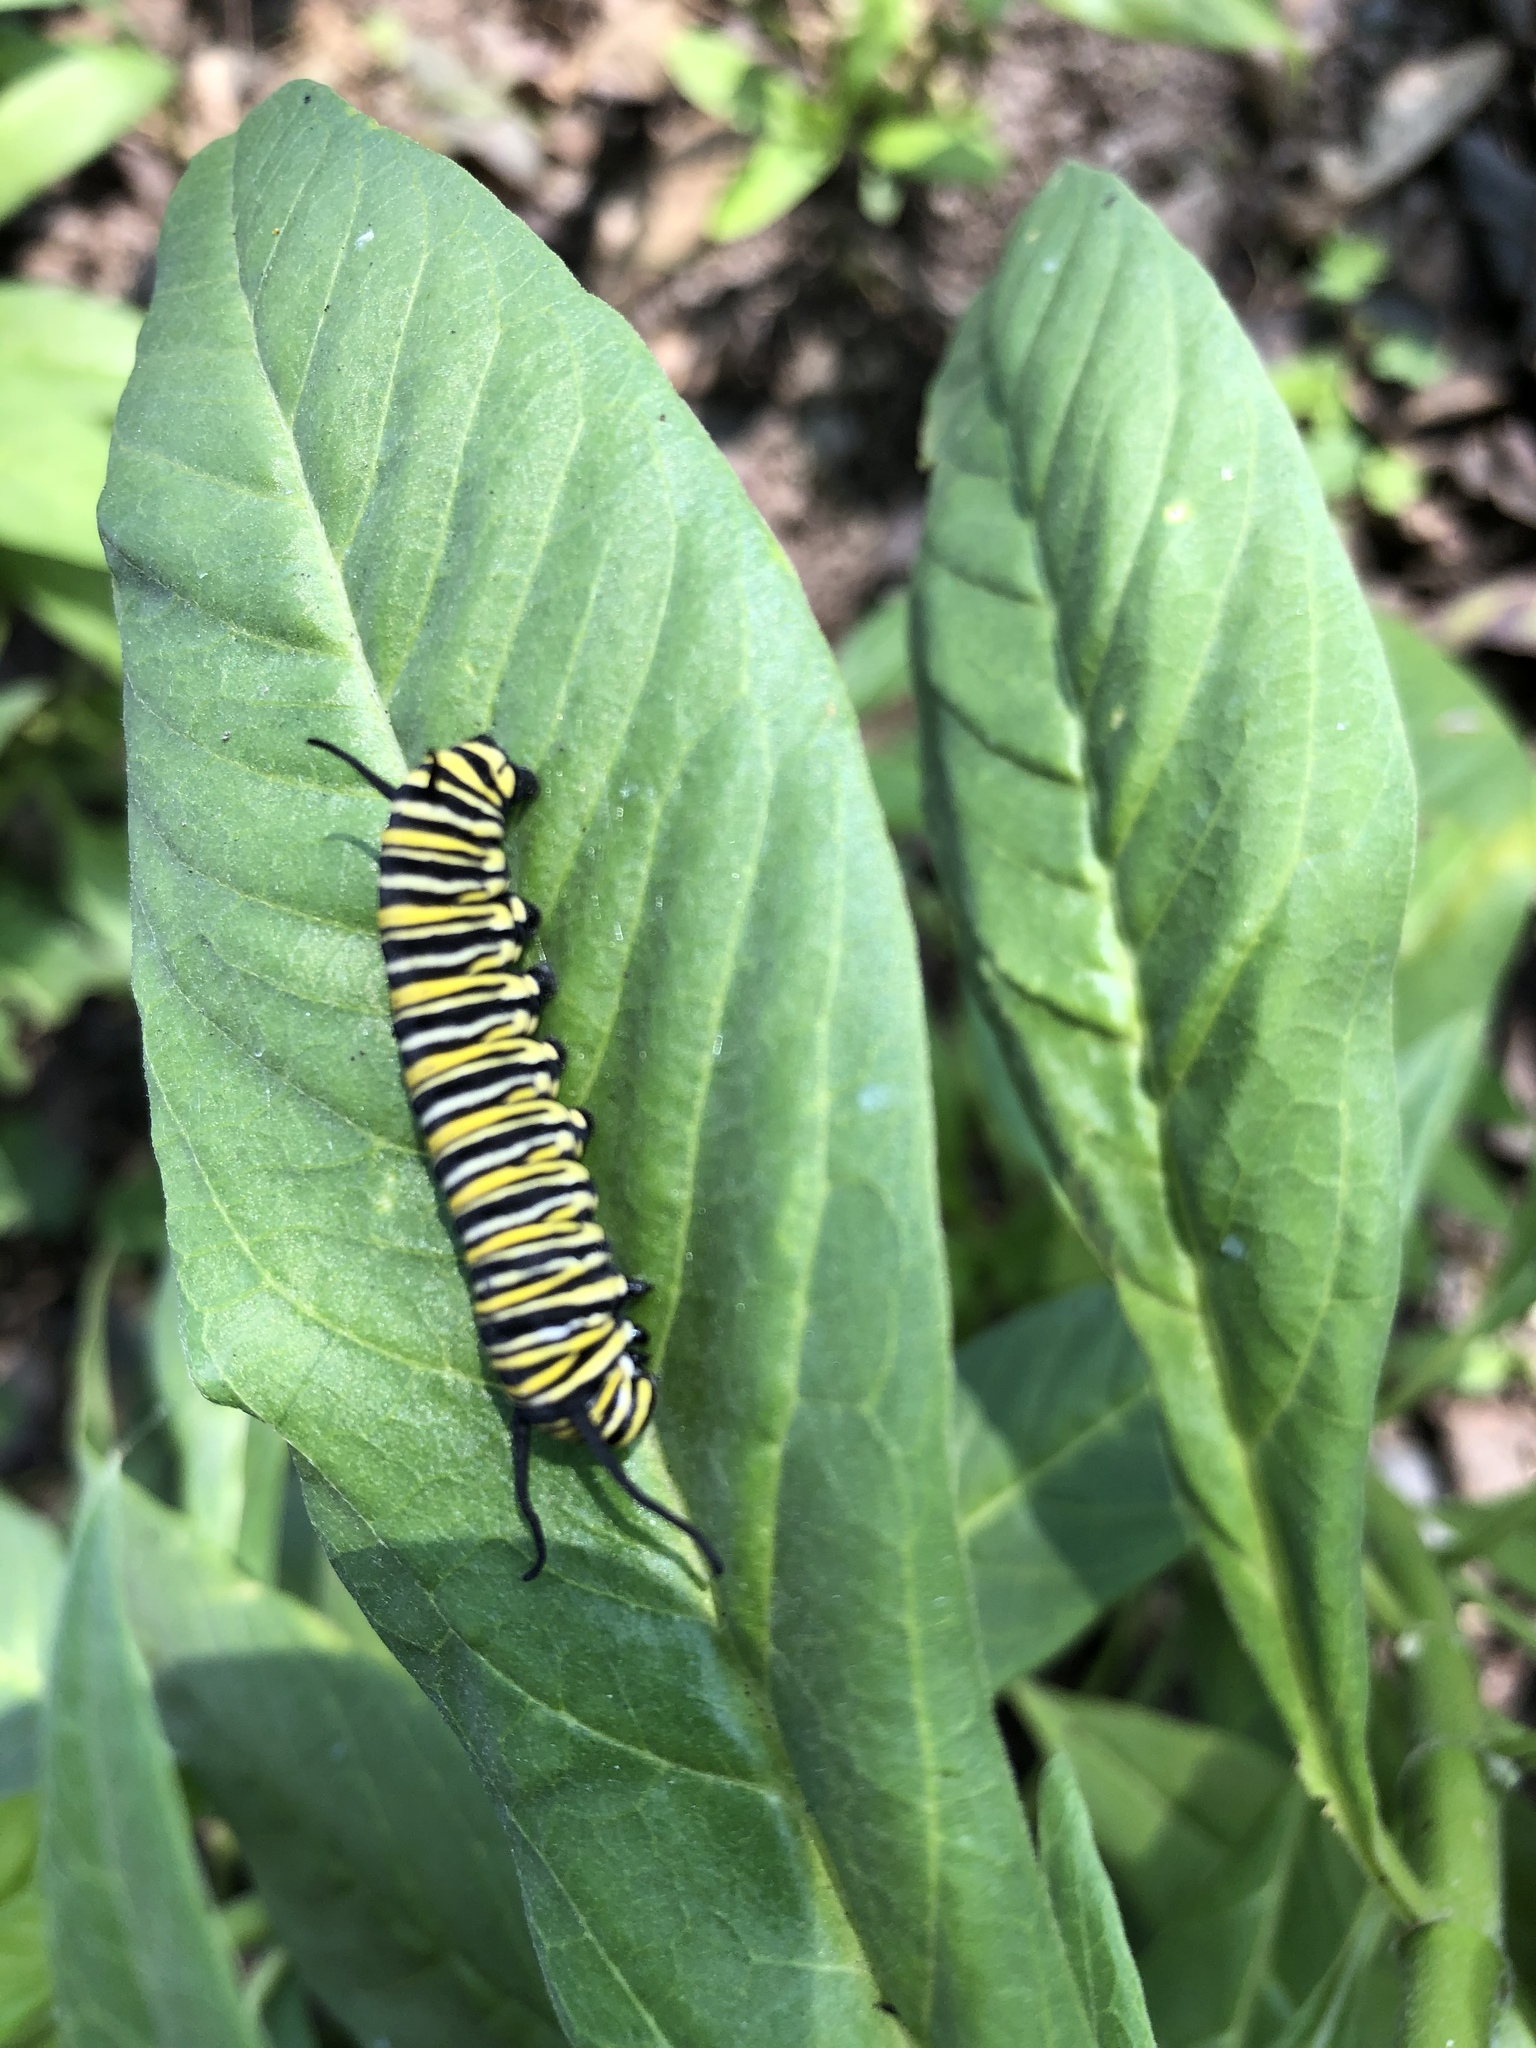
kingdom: Animalia
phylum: Arthropoda
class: Insecta
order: Lepidoptera
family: Nymphalidae
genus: Danaus
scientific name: Danaus plexippus
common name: Monarch
